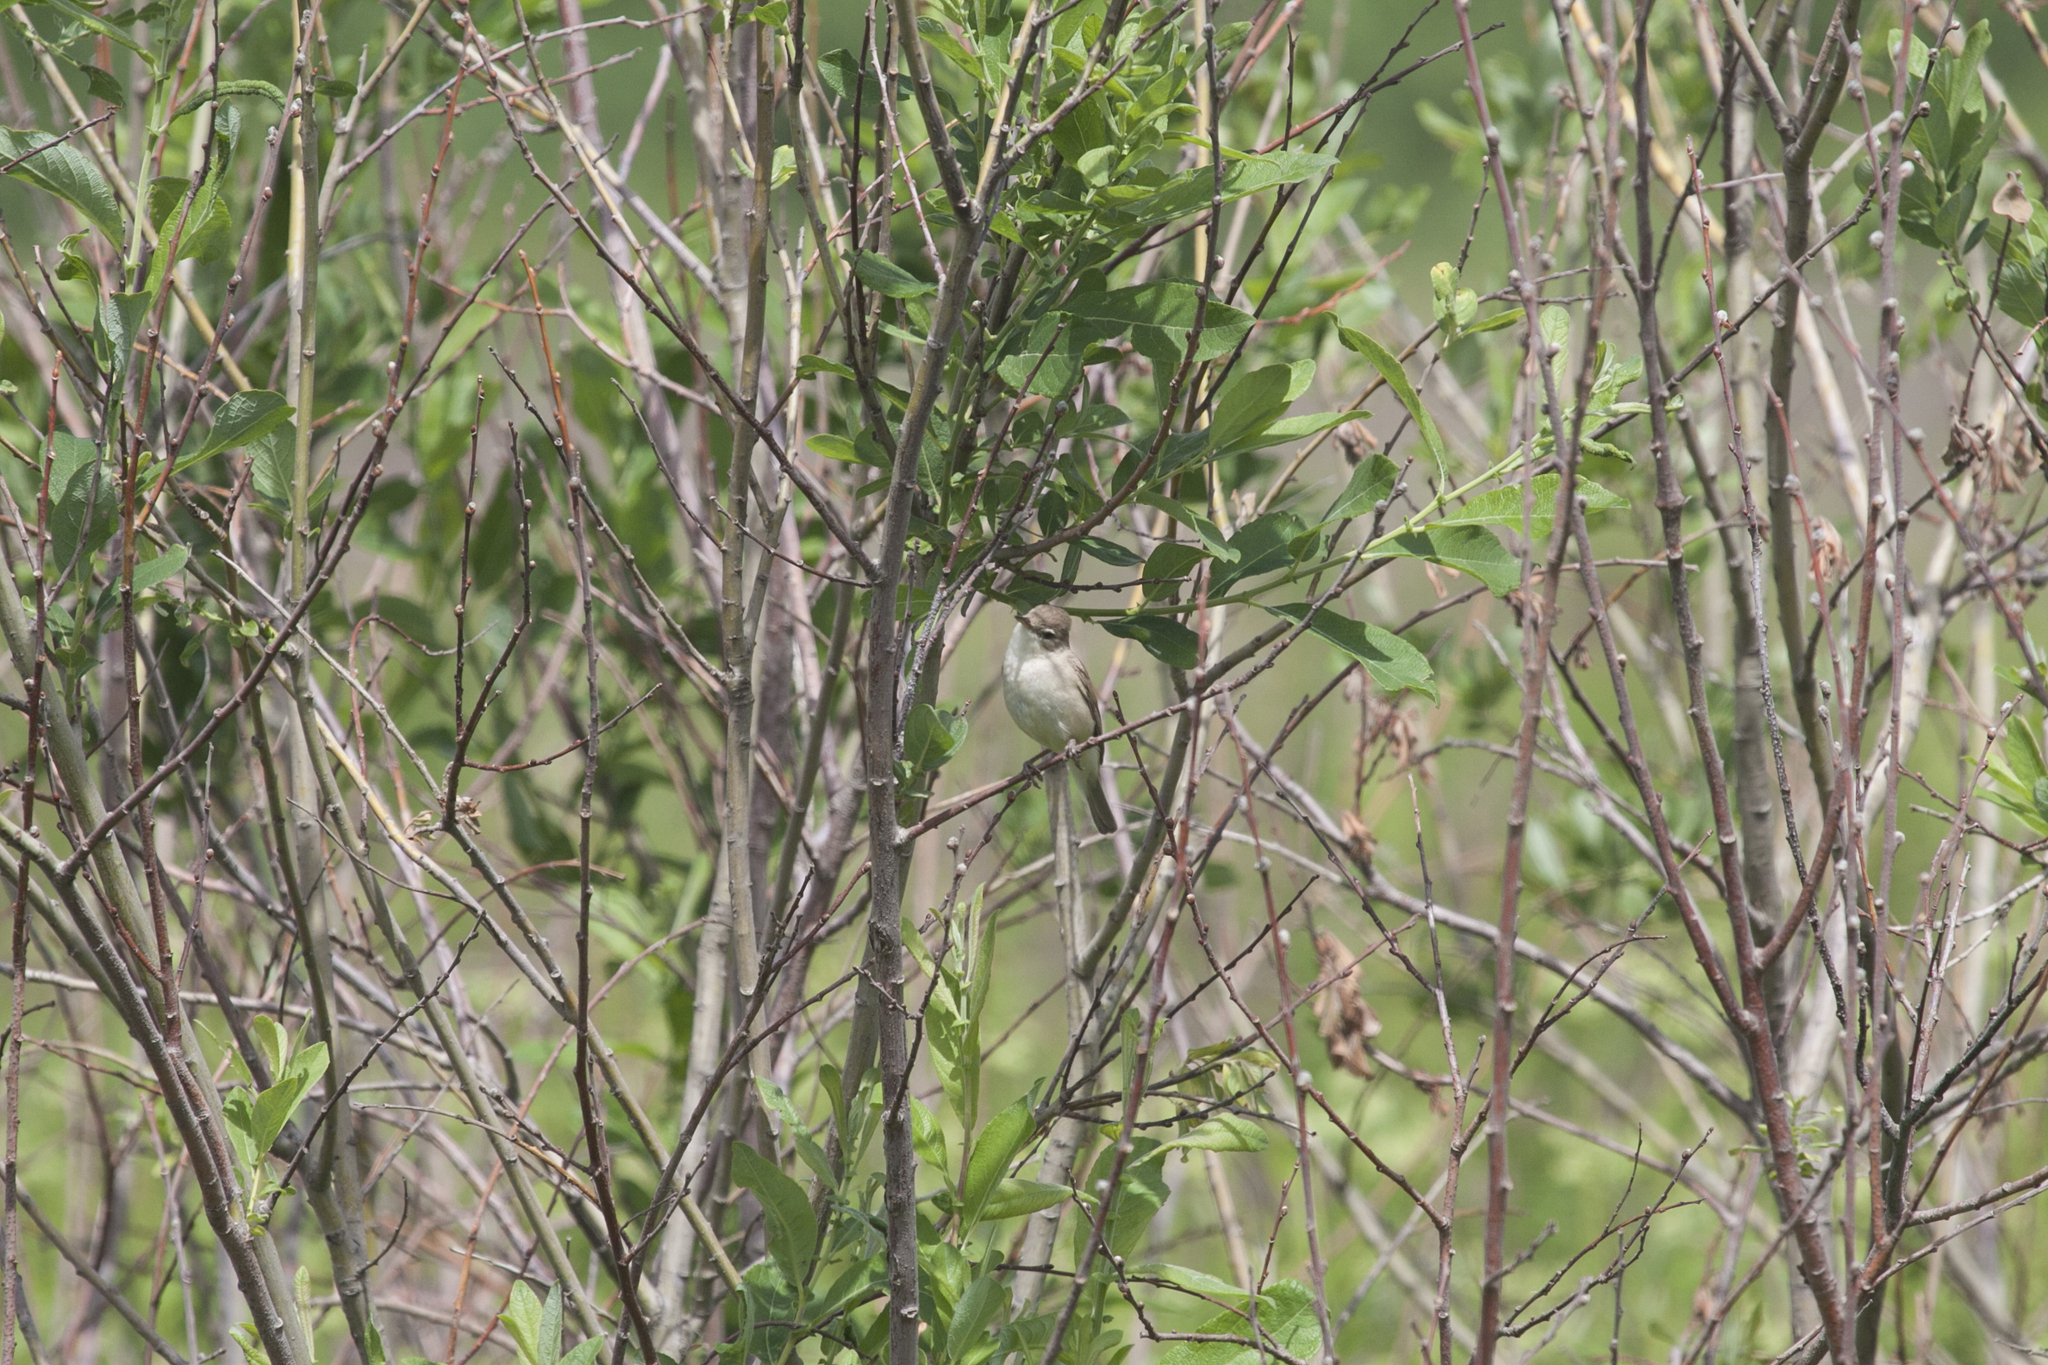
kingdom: Animalia
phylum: Chordata
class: Aves
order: Passeriformes
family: Acrocephalidae
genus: Iduna
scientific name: Iduna caligata
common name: Booted warbler
